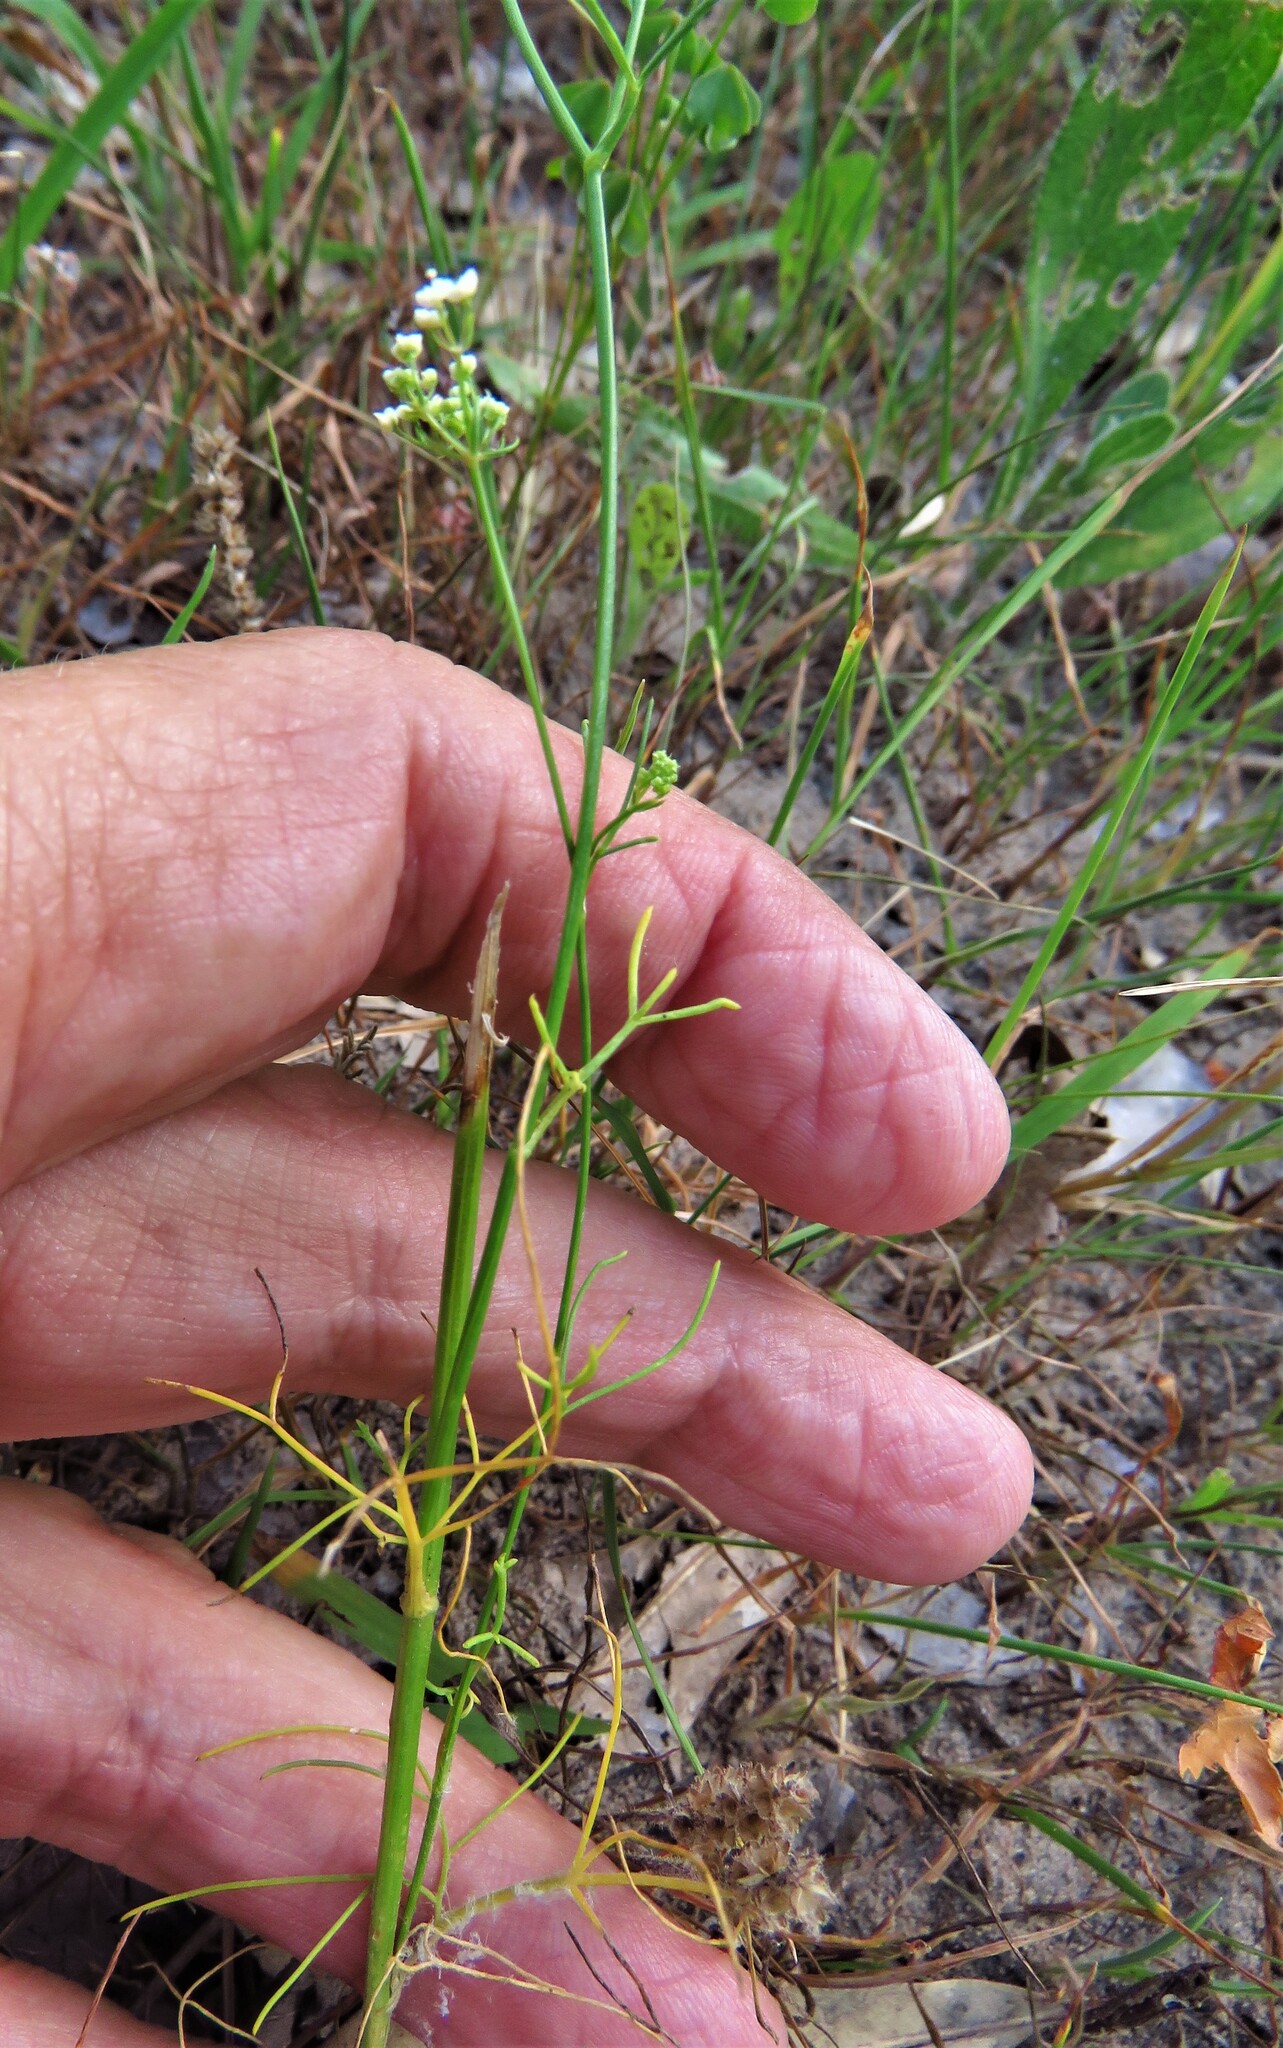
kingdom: Plantae
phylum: Tracheophyta
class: Magnoliopsida
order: Apiales
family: Apiaceae
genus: Atrema
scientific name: Atrema americanum
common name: Prairie-bishop
